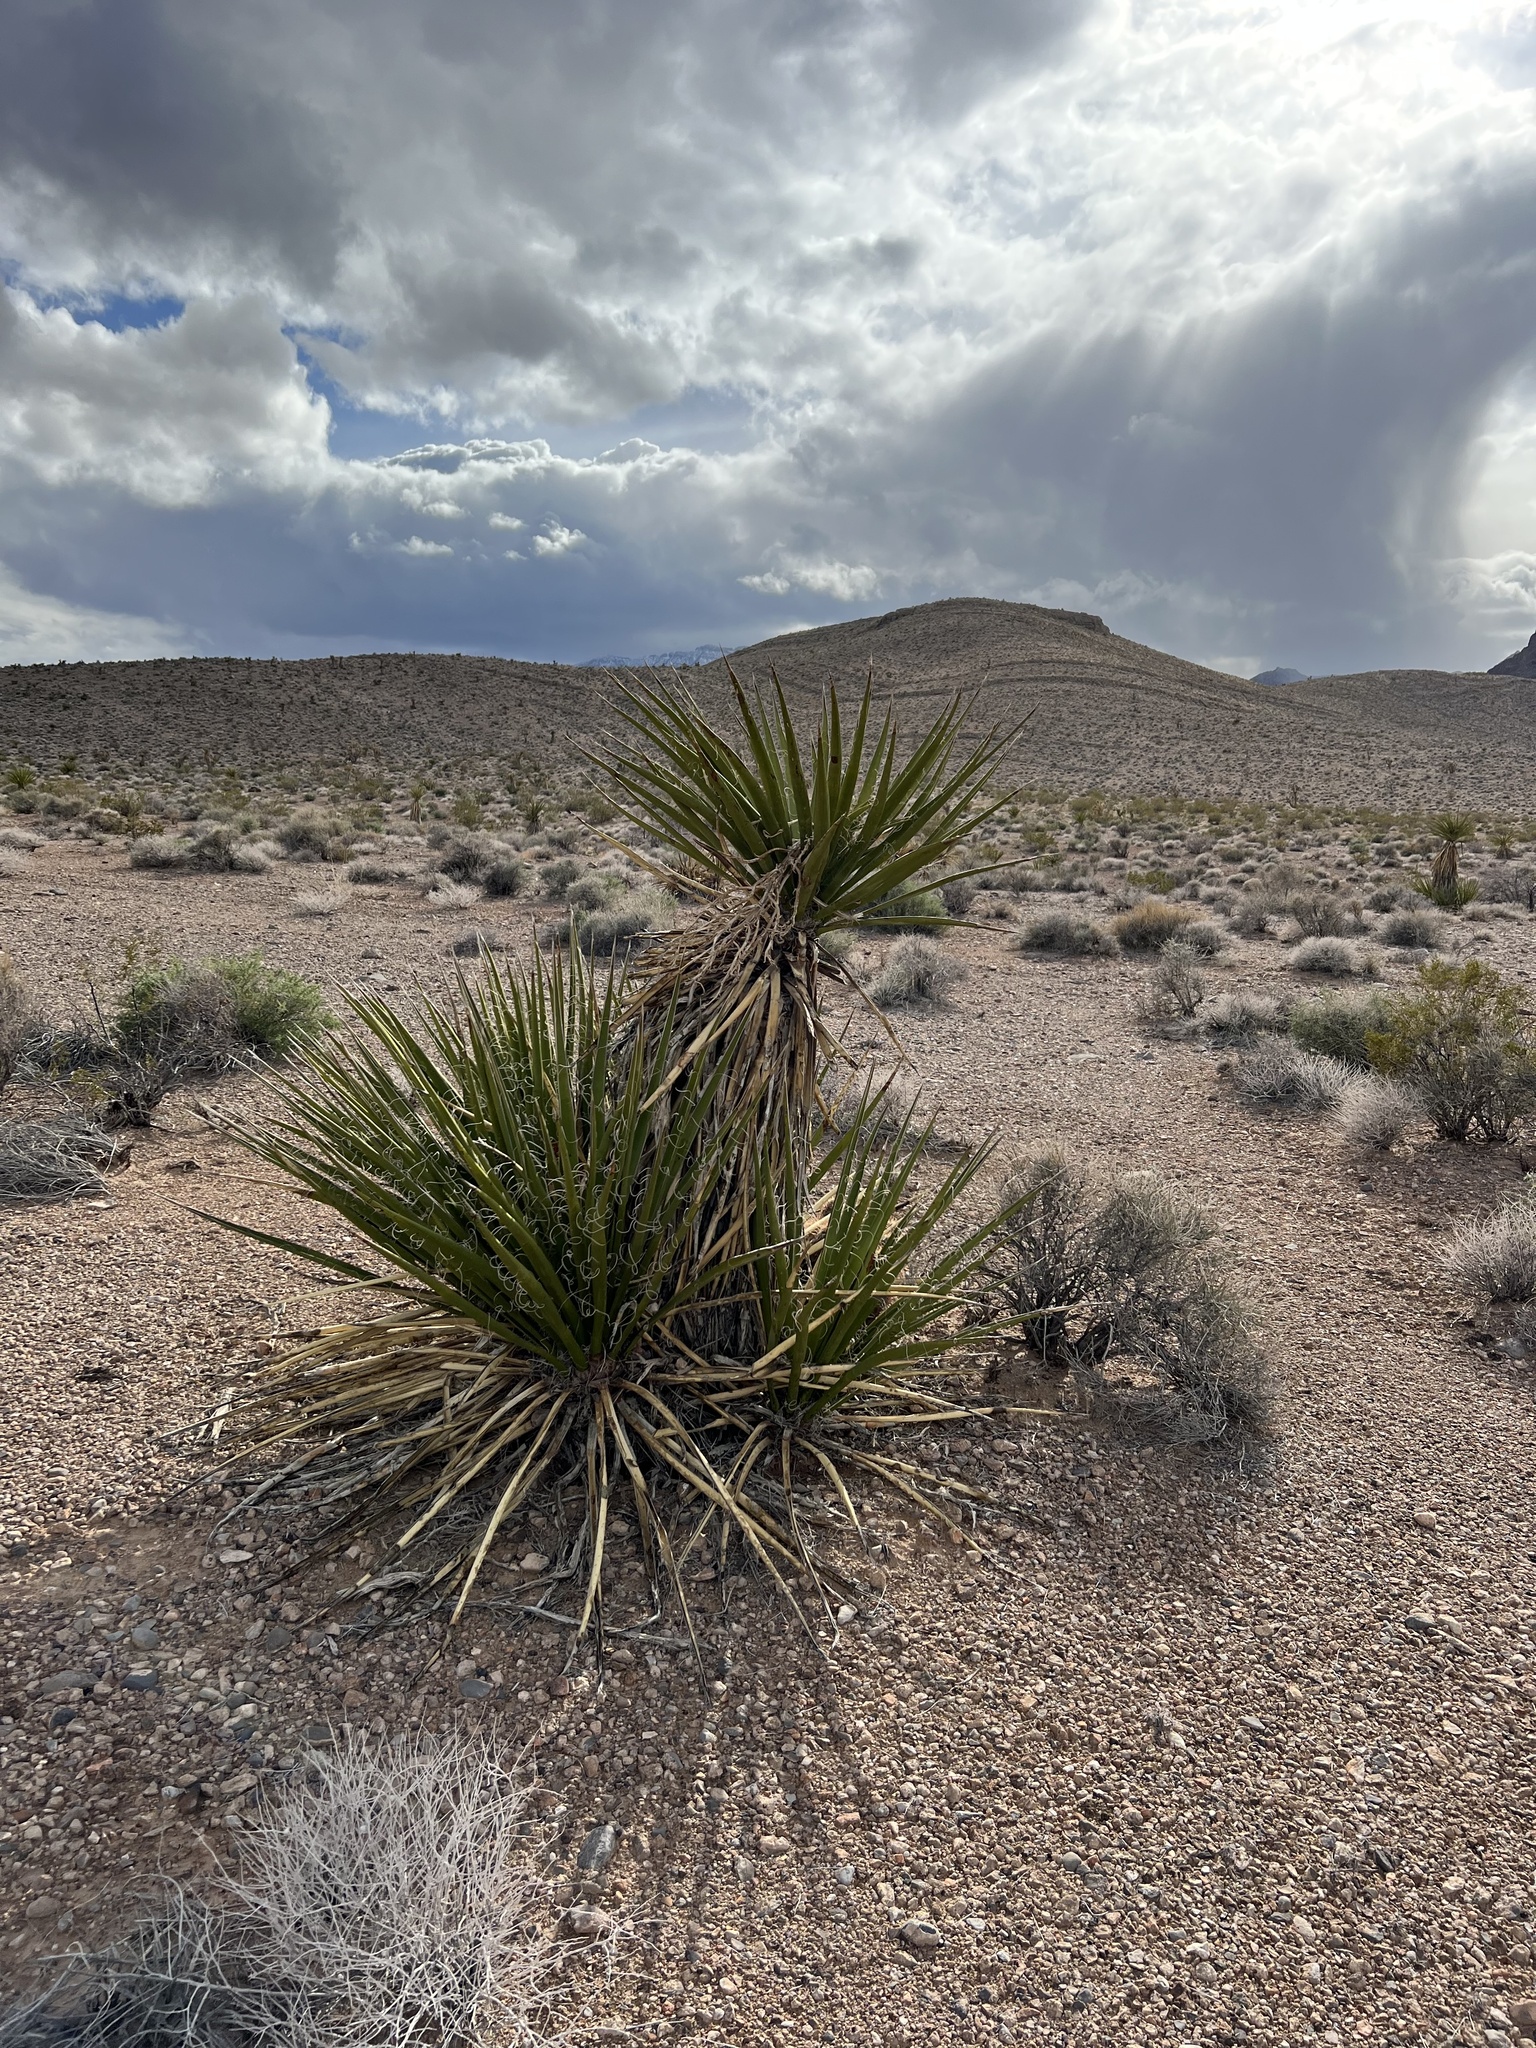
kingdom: Plantae
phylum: Tracheophyta
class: Liliopsida
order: Asparagales
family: Asparagaceae
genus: Yucca
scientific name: Yucca schidigera
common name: Mojave yucca
